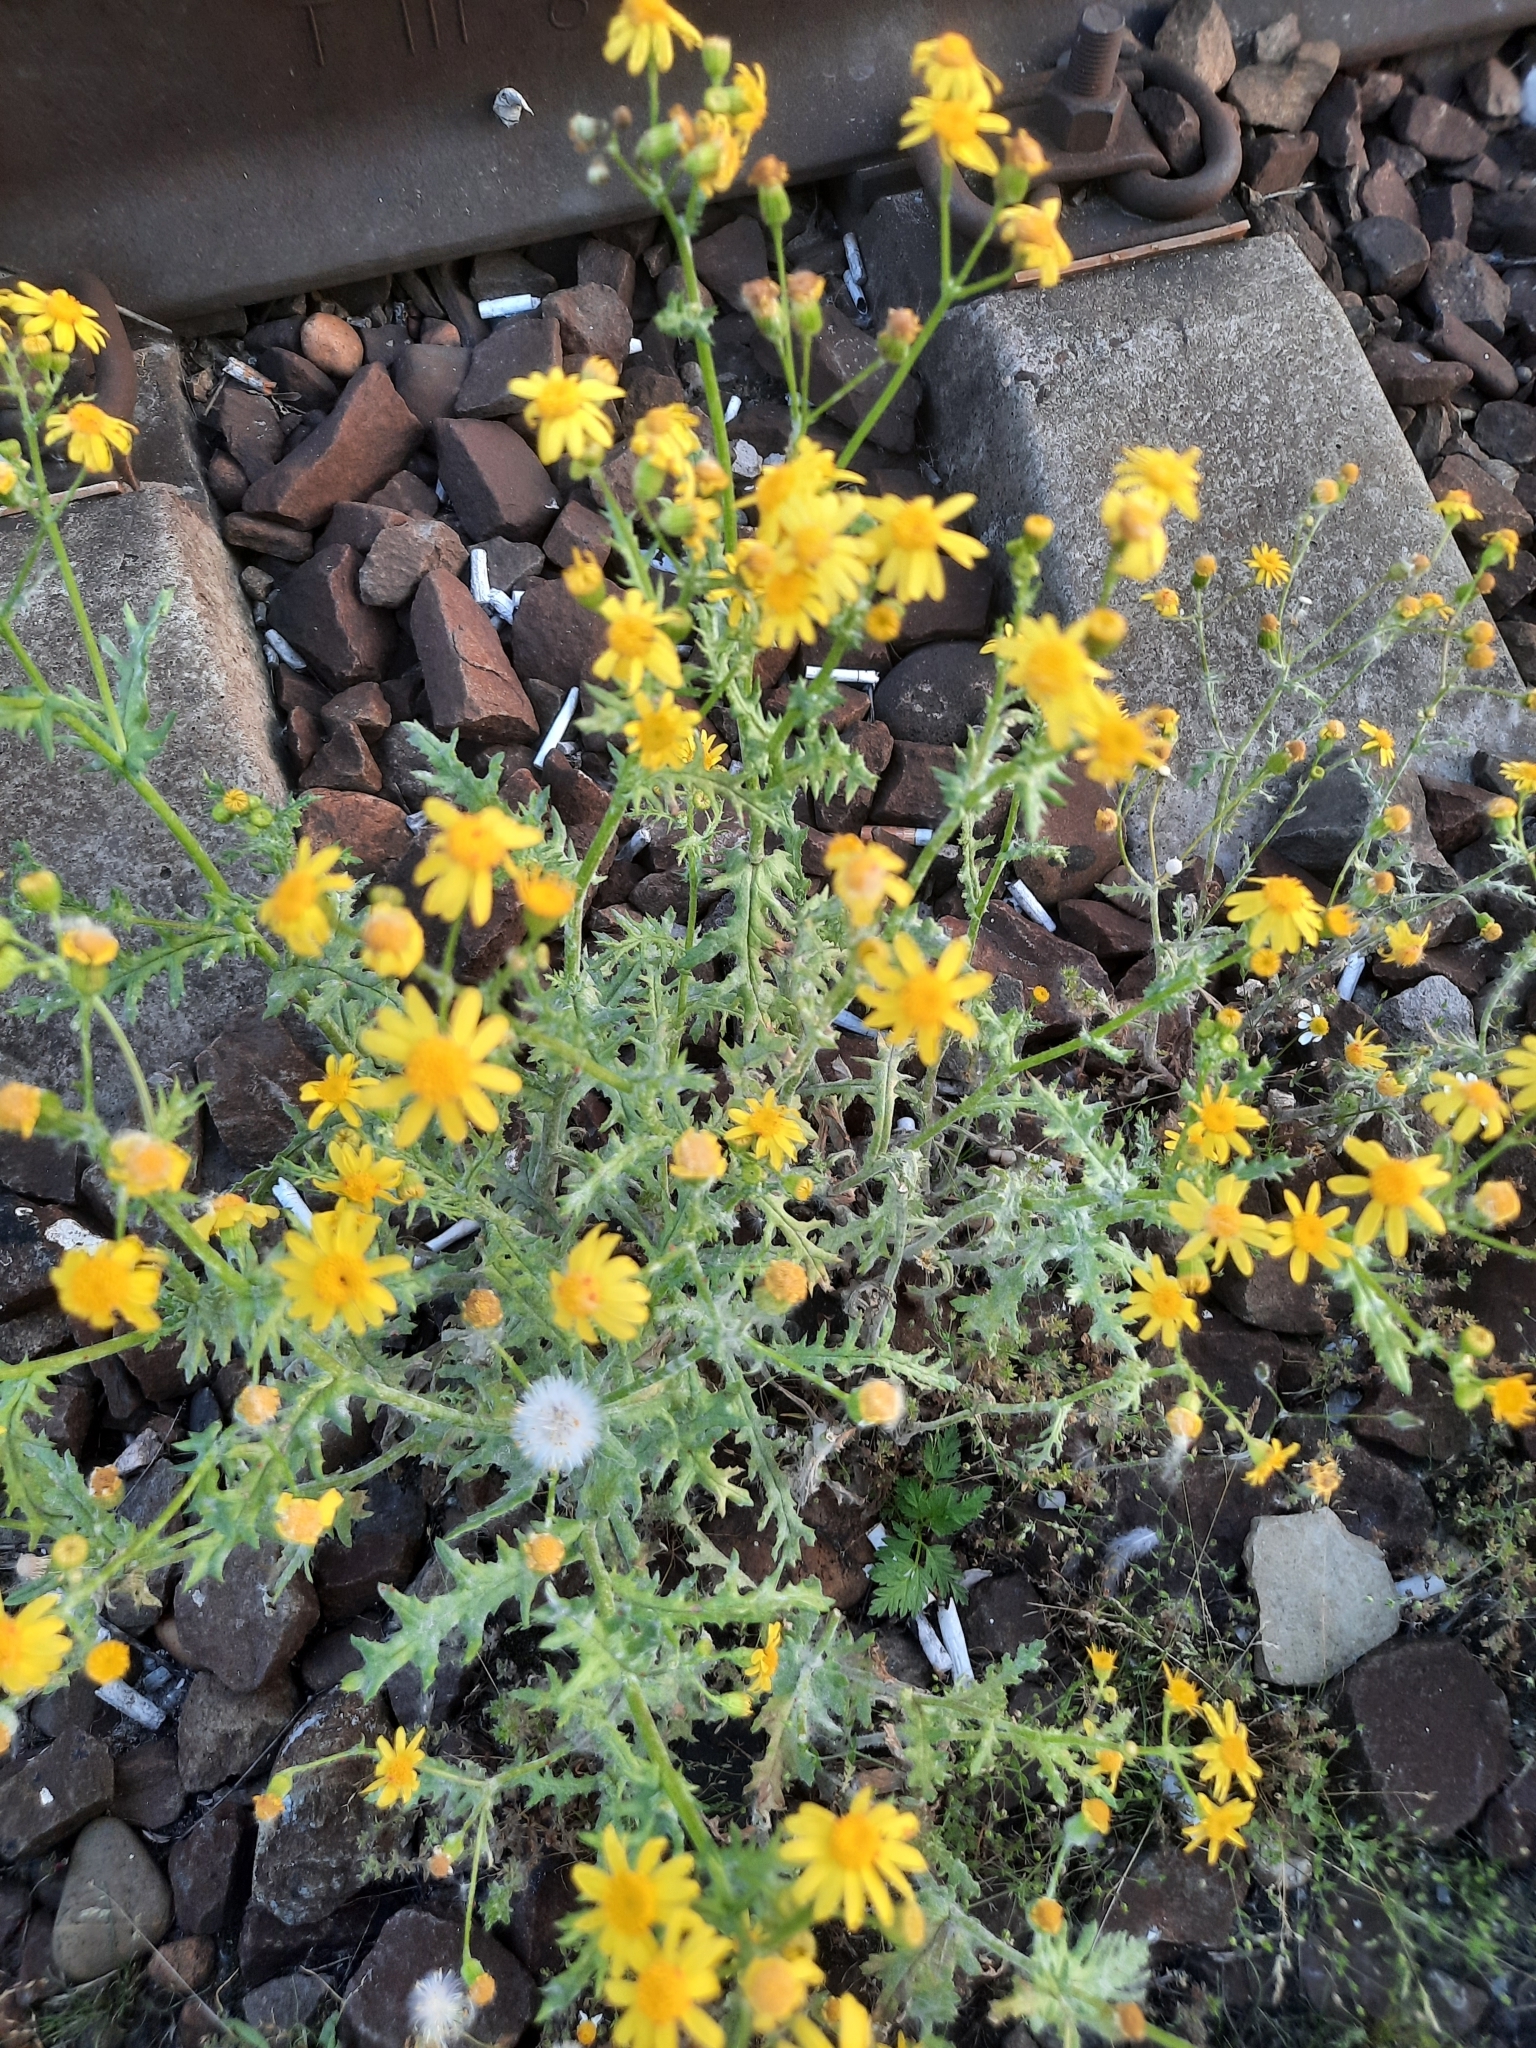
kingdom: Plantae
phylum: Tracheophyta
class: Magnoliopsida
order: Asterales
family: Asteraceae
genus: Senecio
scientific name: Senecio vernalis
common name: Eastern groundsel
